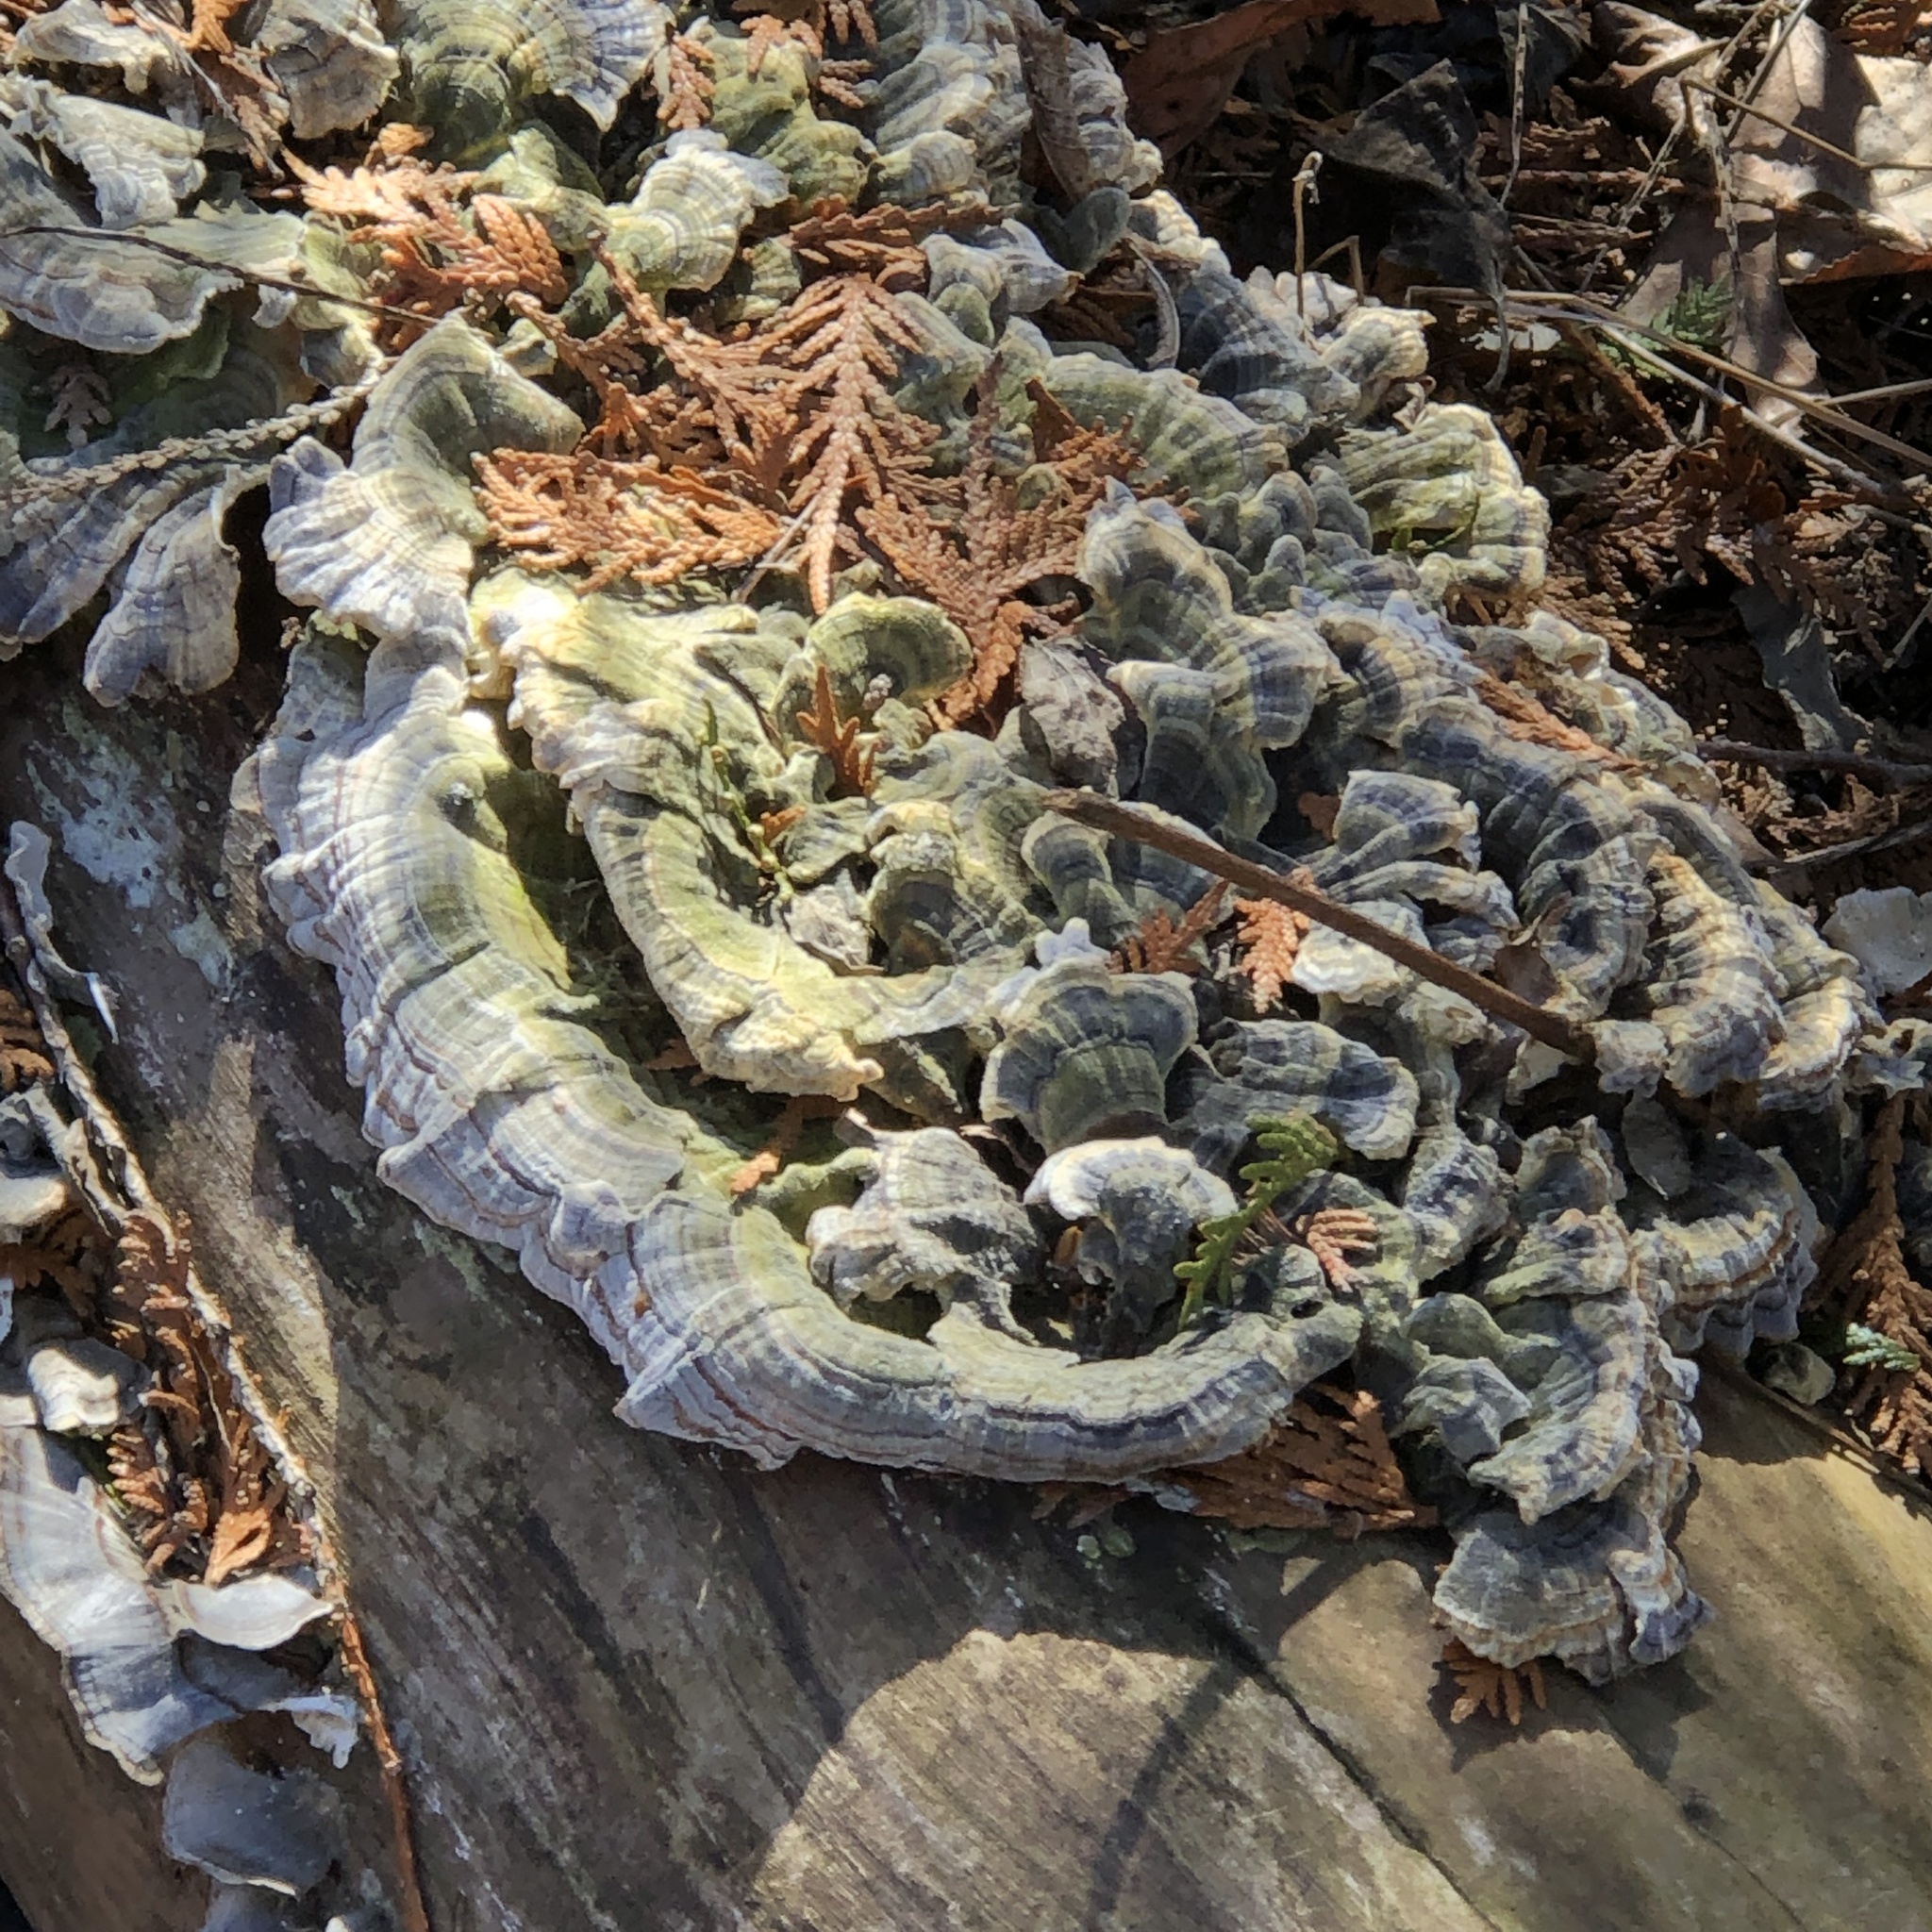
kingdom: Fungi
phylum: Basidiomycota
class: Agaricomycetes
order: Polyporales
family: Polyporaceae
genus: Trametes
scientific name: Trametes versicolor
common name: Turkeytail
